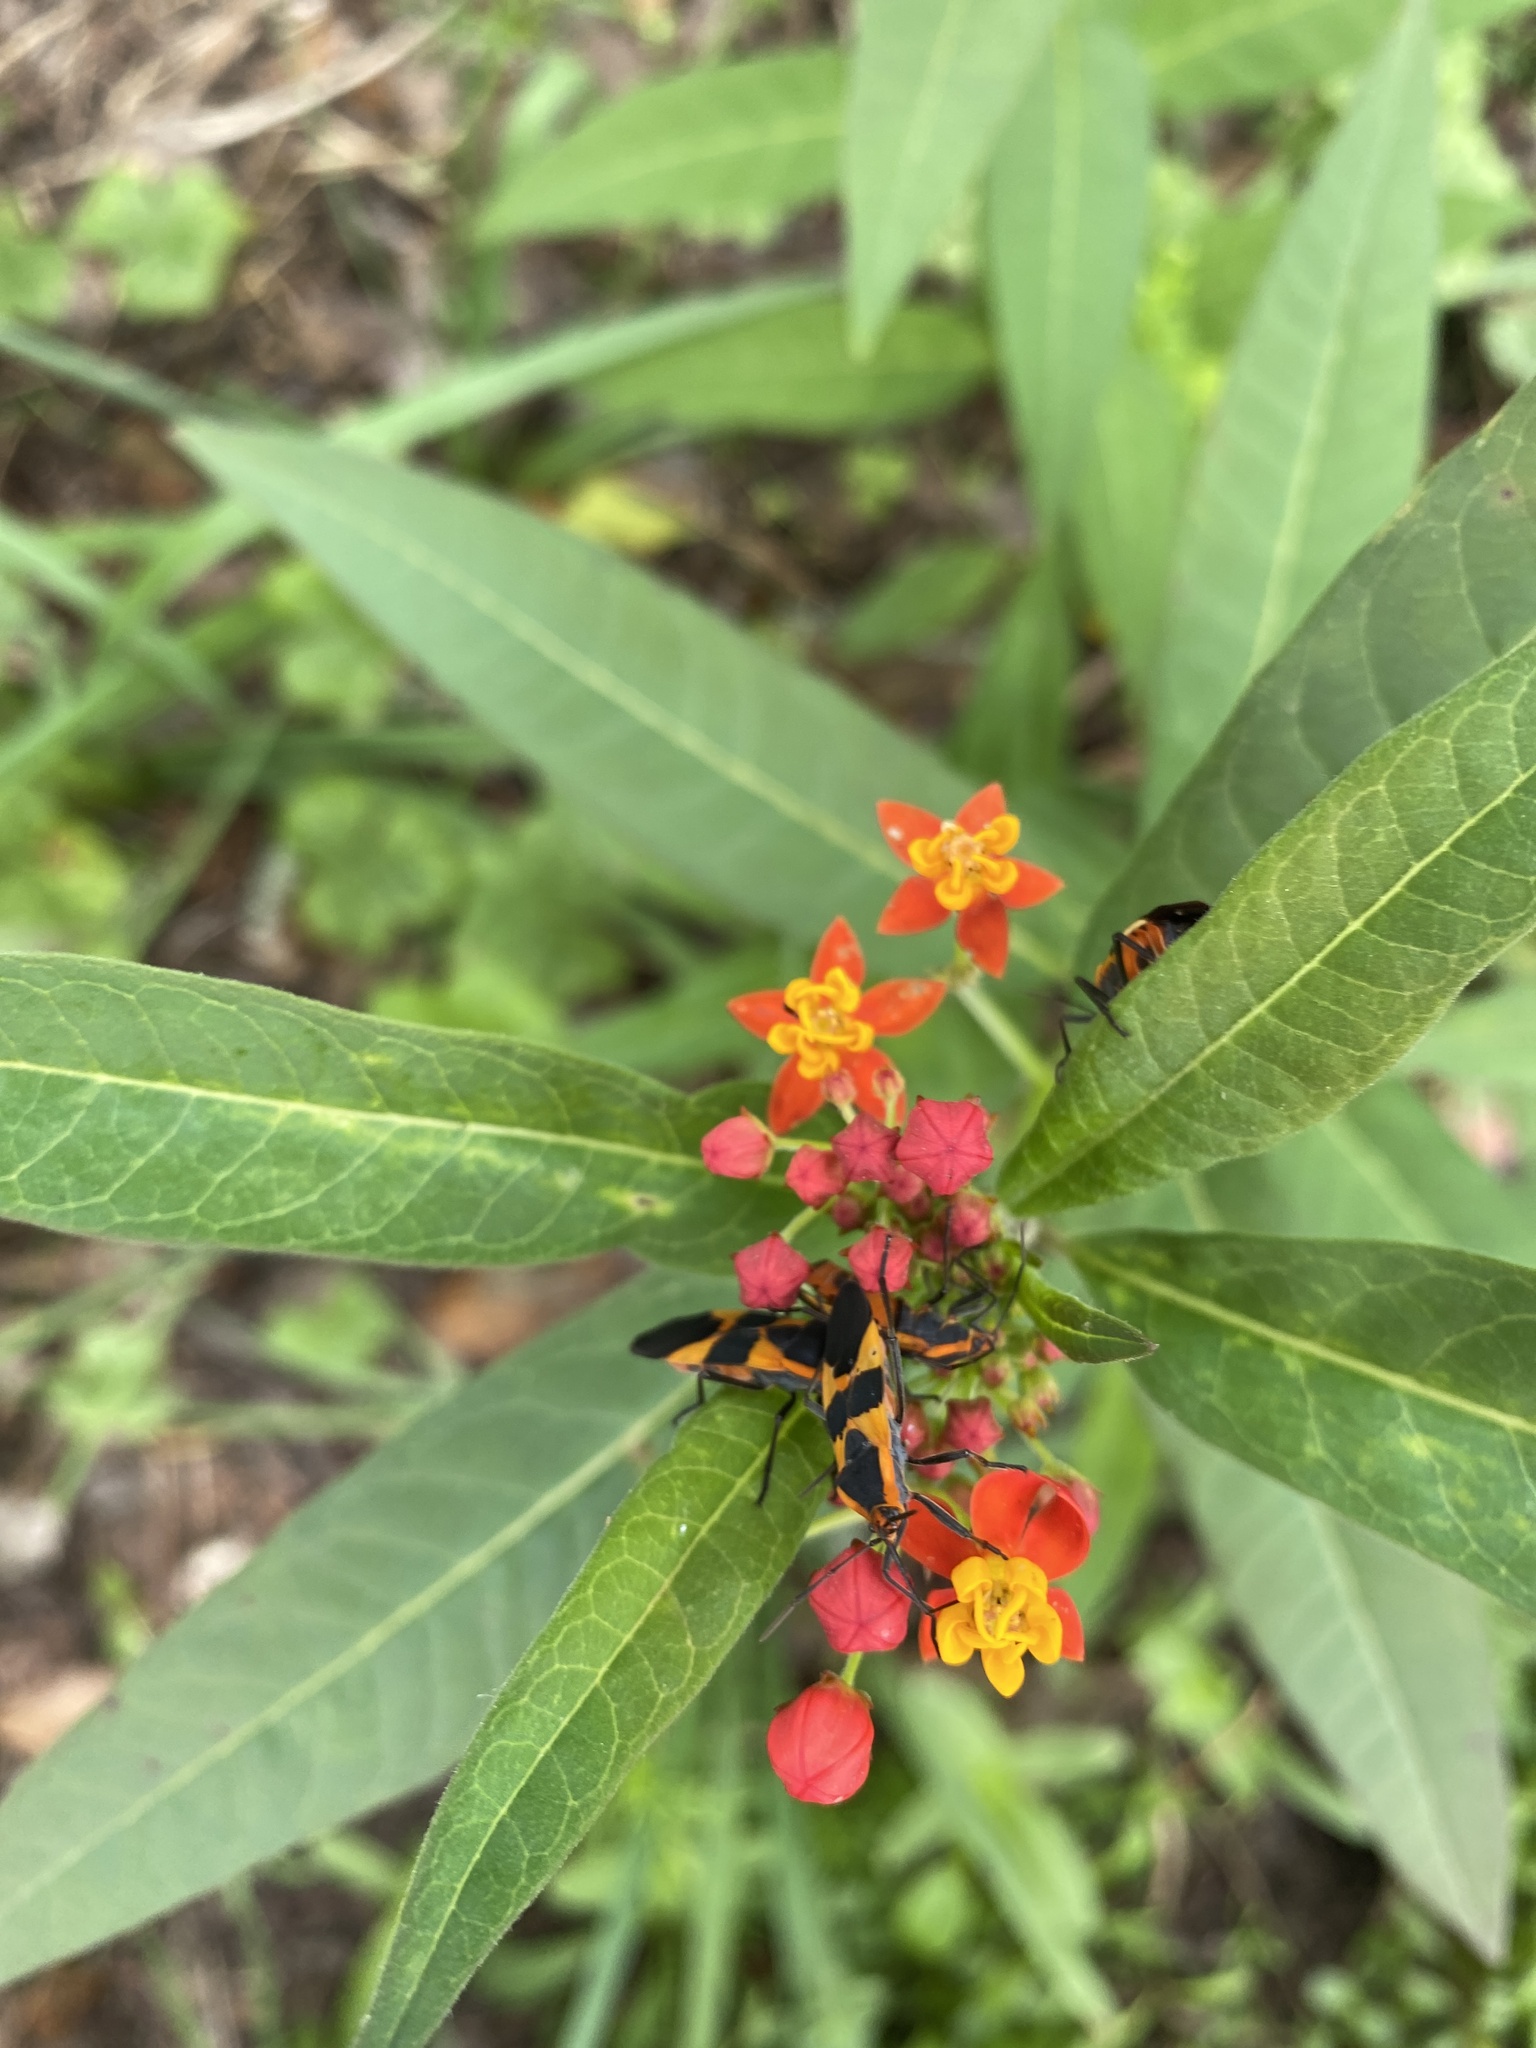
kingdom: Animalia
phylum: Arthropoda
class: Insecta
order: Hemiptera
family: Lygaeidae
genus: Oncopeltus
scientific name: Oncopeltus fasciatus
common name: Large milkweed bug
